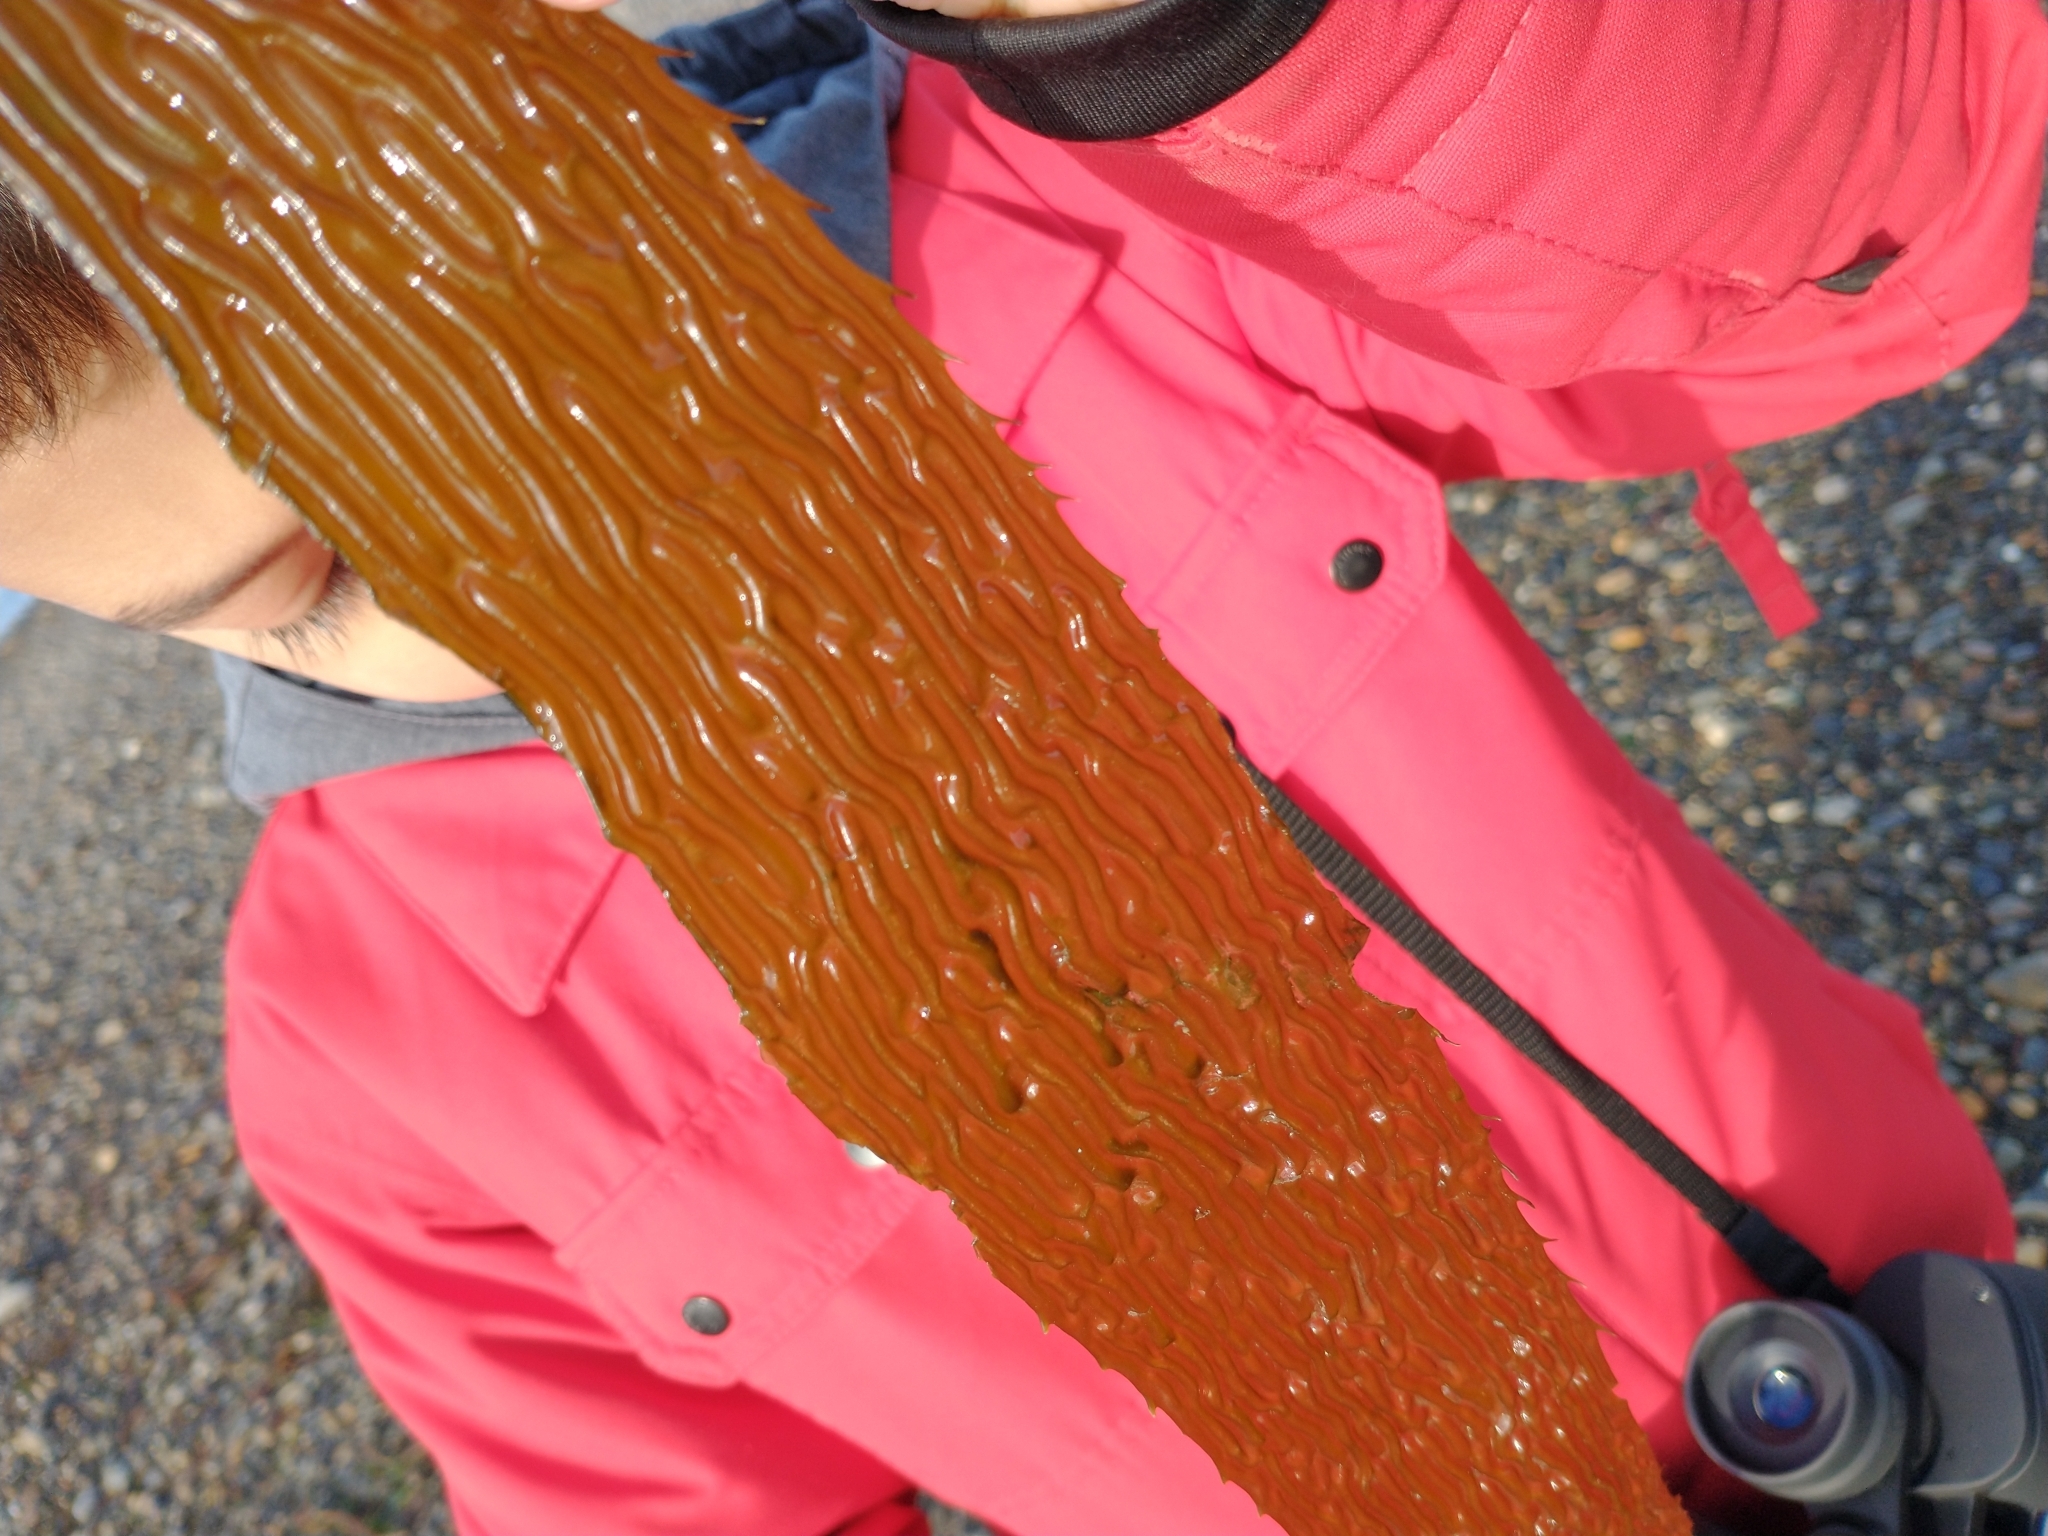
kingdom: Chromista
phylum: Ochrophyta
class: Phaeophyceae
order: Laminariales
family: Laminariaceae
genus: Macrocystis
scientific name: Macrocystis pyrifera
